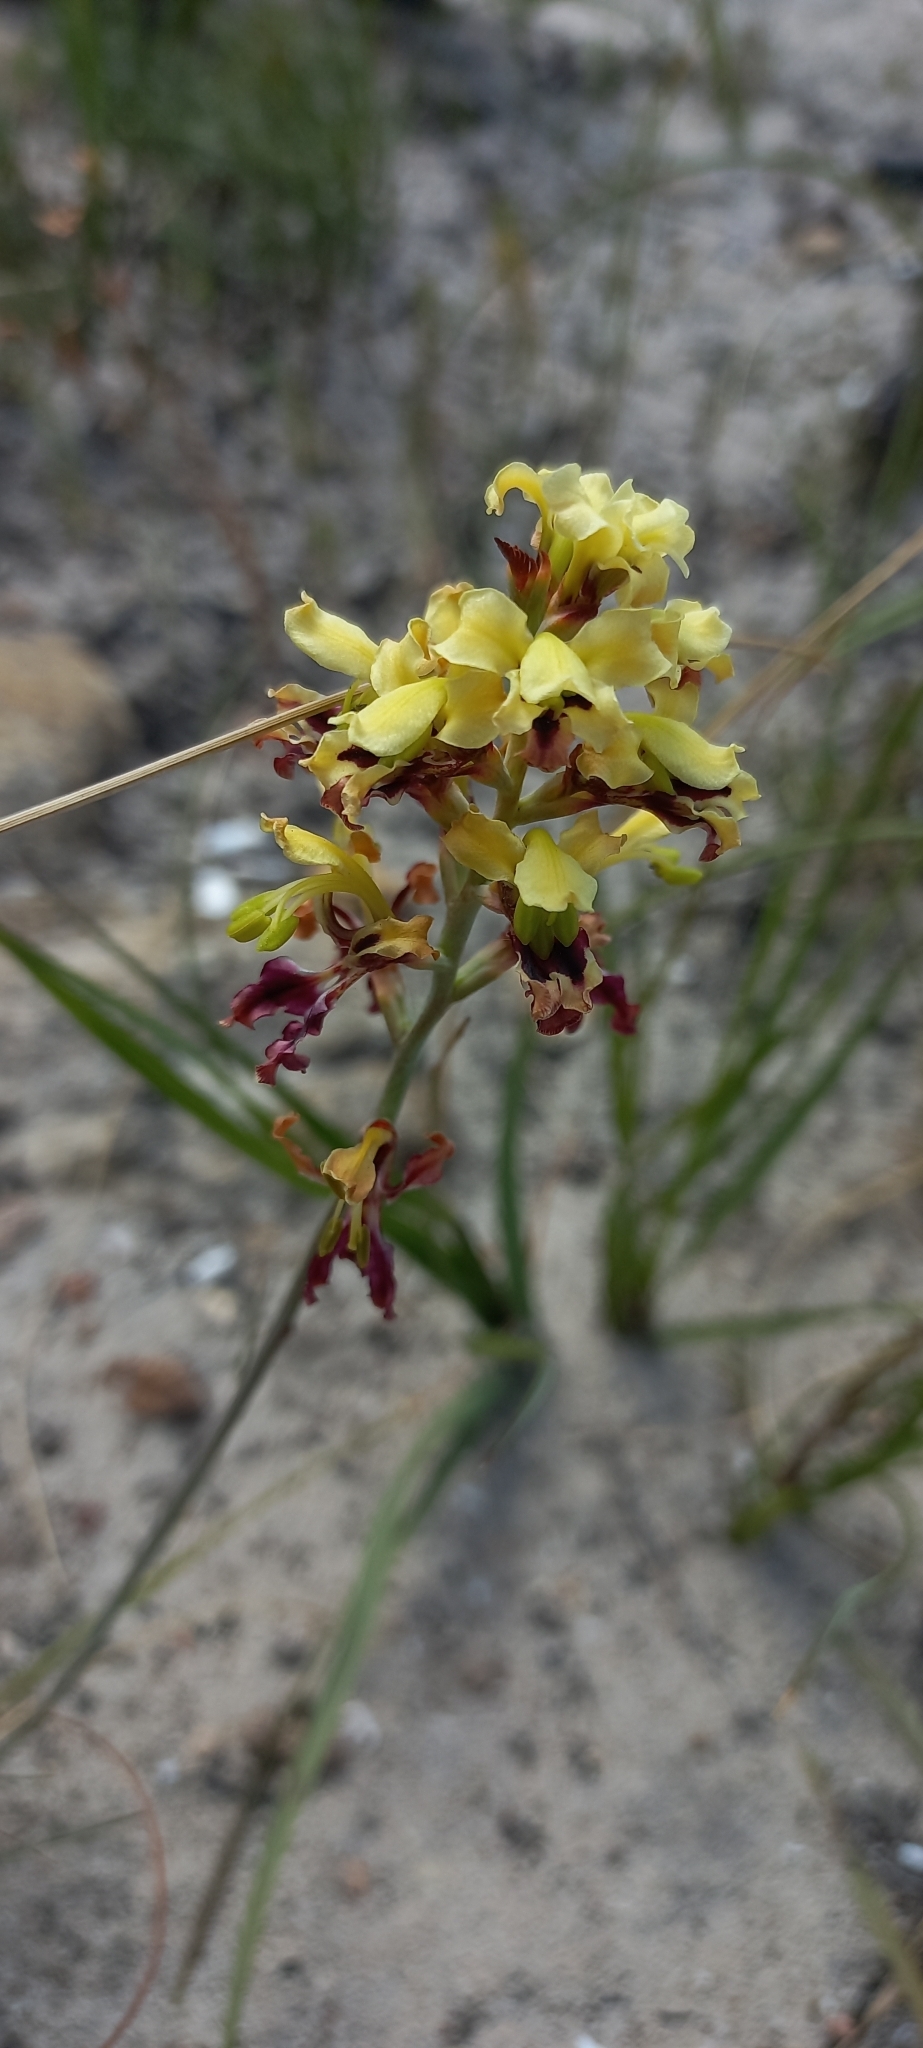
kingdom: Plantae
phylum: Tracheophyta
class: Liliopsida
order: Asparagales
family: Iridaceae
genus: Tritoniopsis
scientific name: Tritoniopsis parviflora
